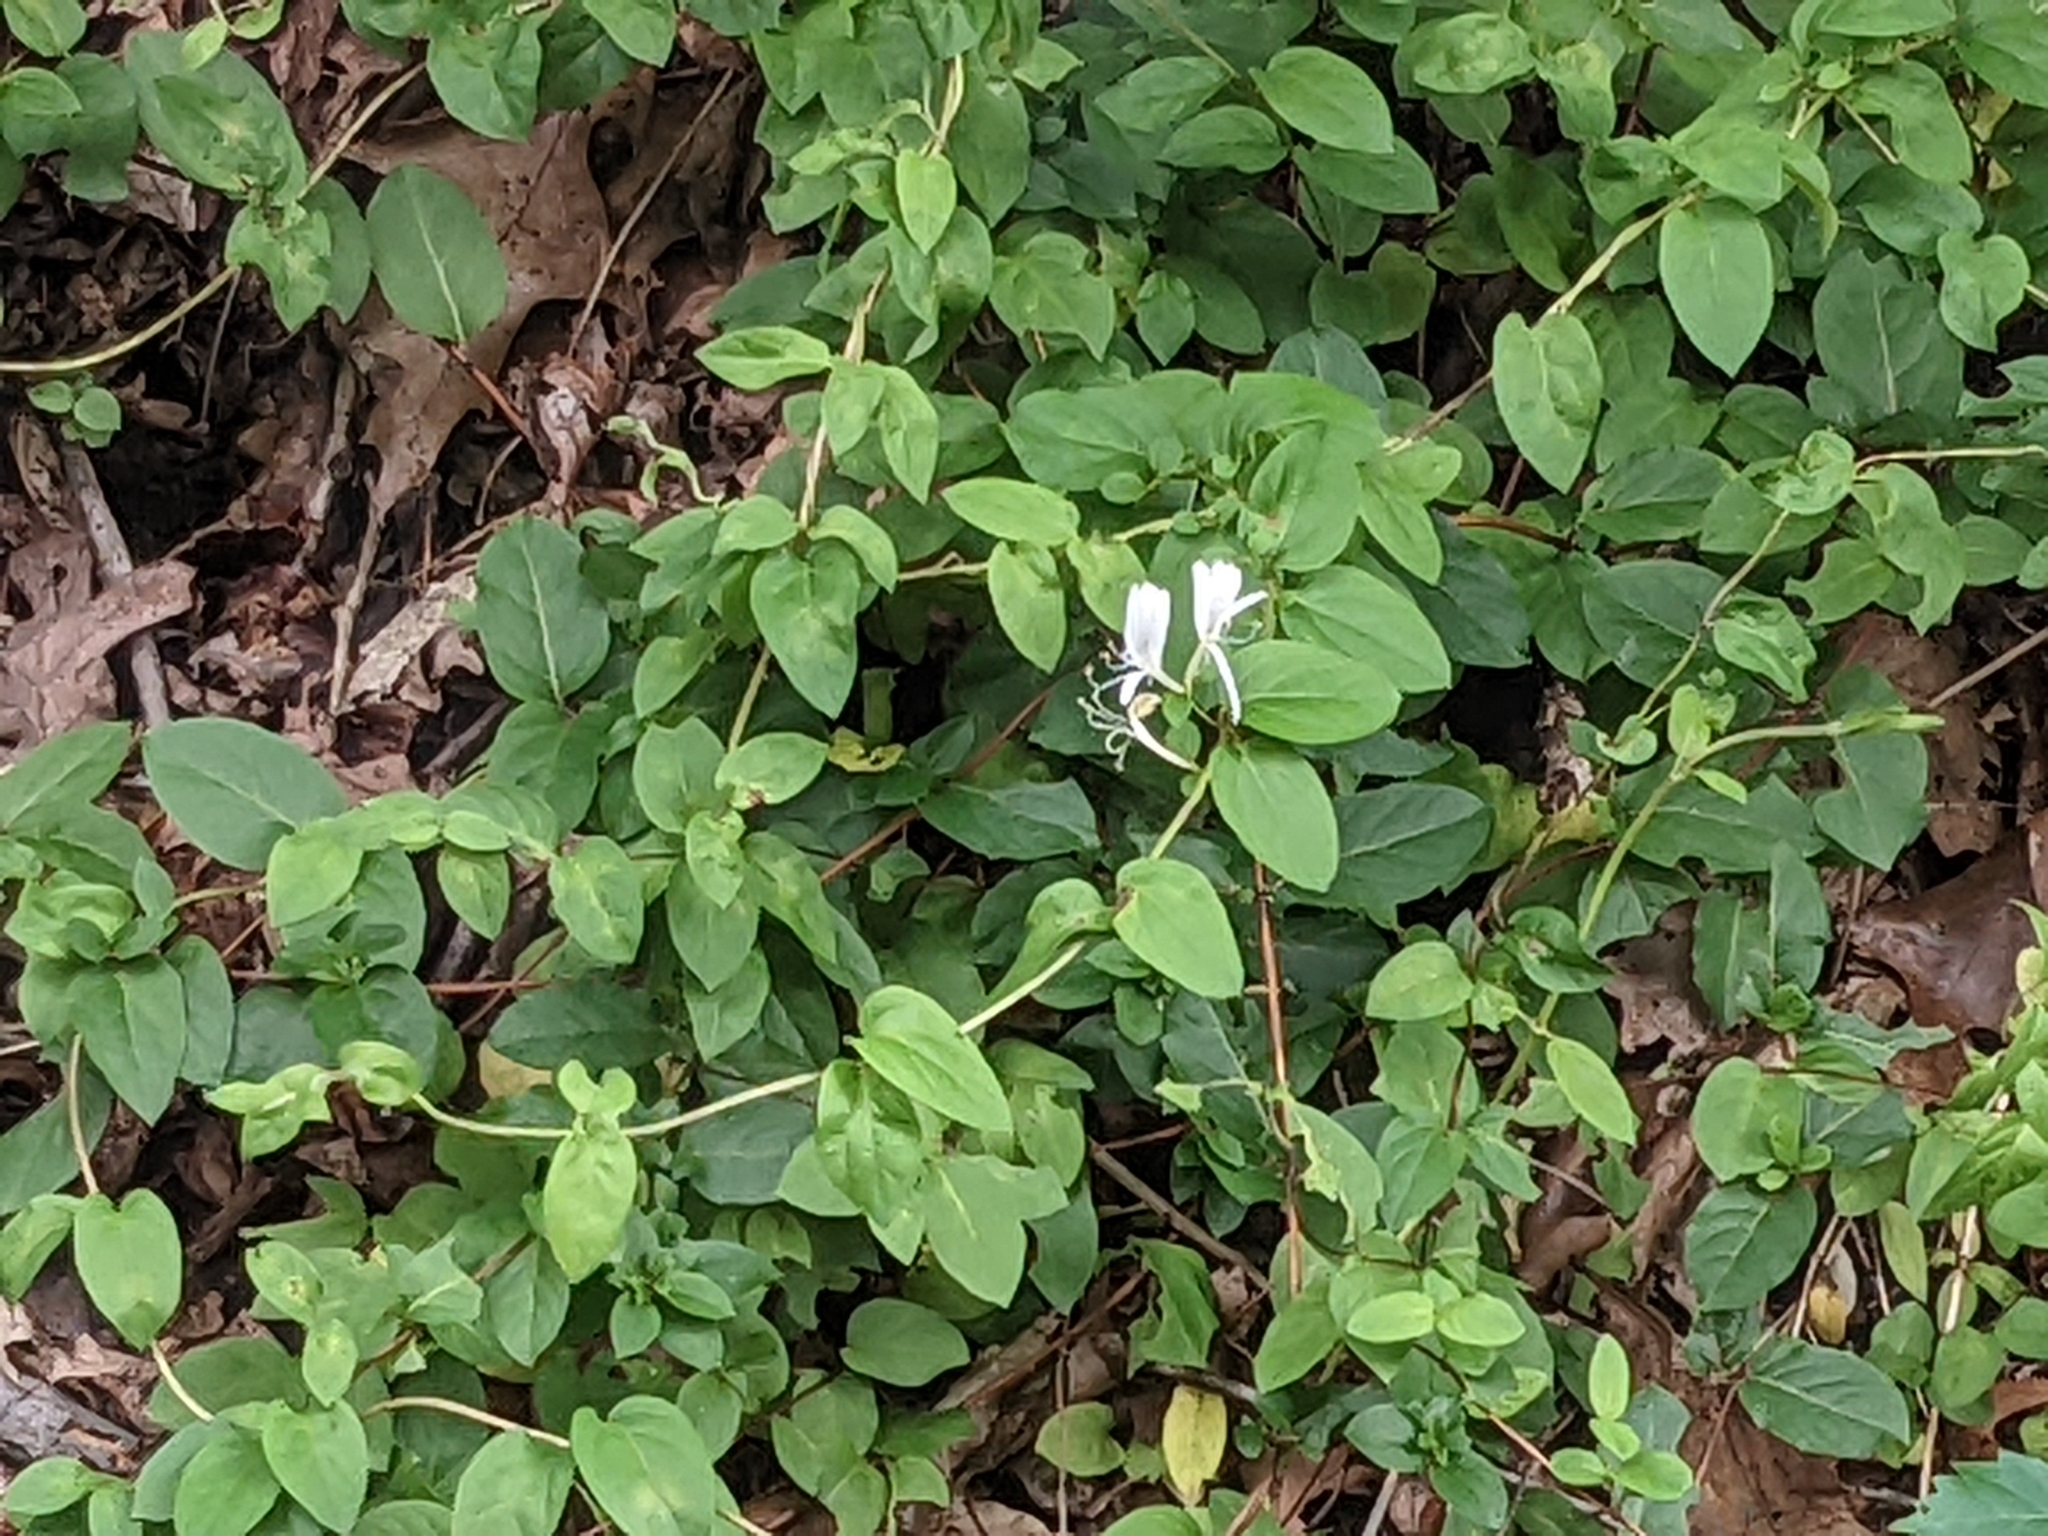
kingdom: Plantae
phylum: Tracheophyta
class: Magnoliopsida
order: Dipsacales
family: Caprifoliaceae
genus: Lonicera
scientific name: Lonicera japonica
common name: Japanese honeysuckle
